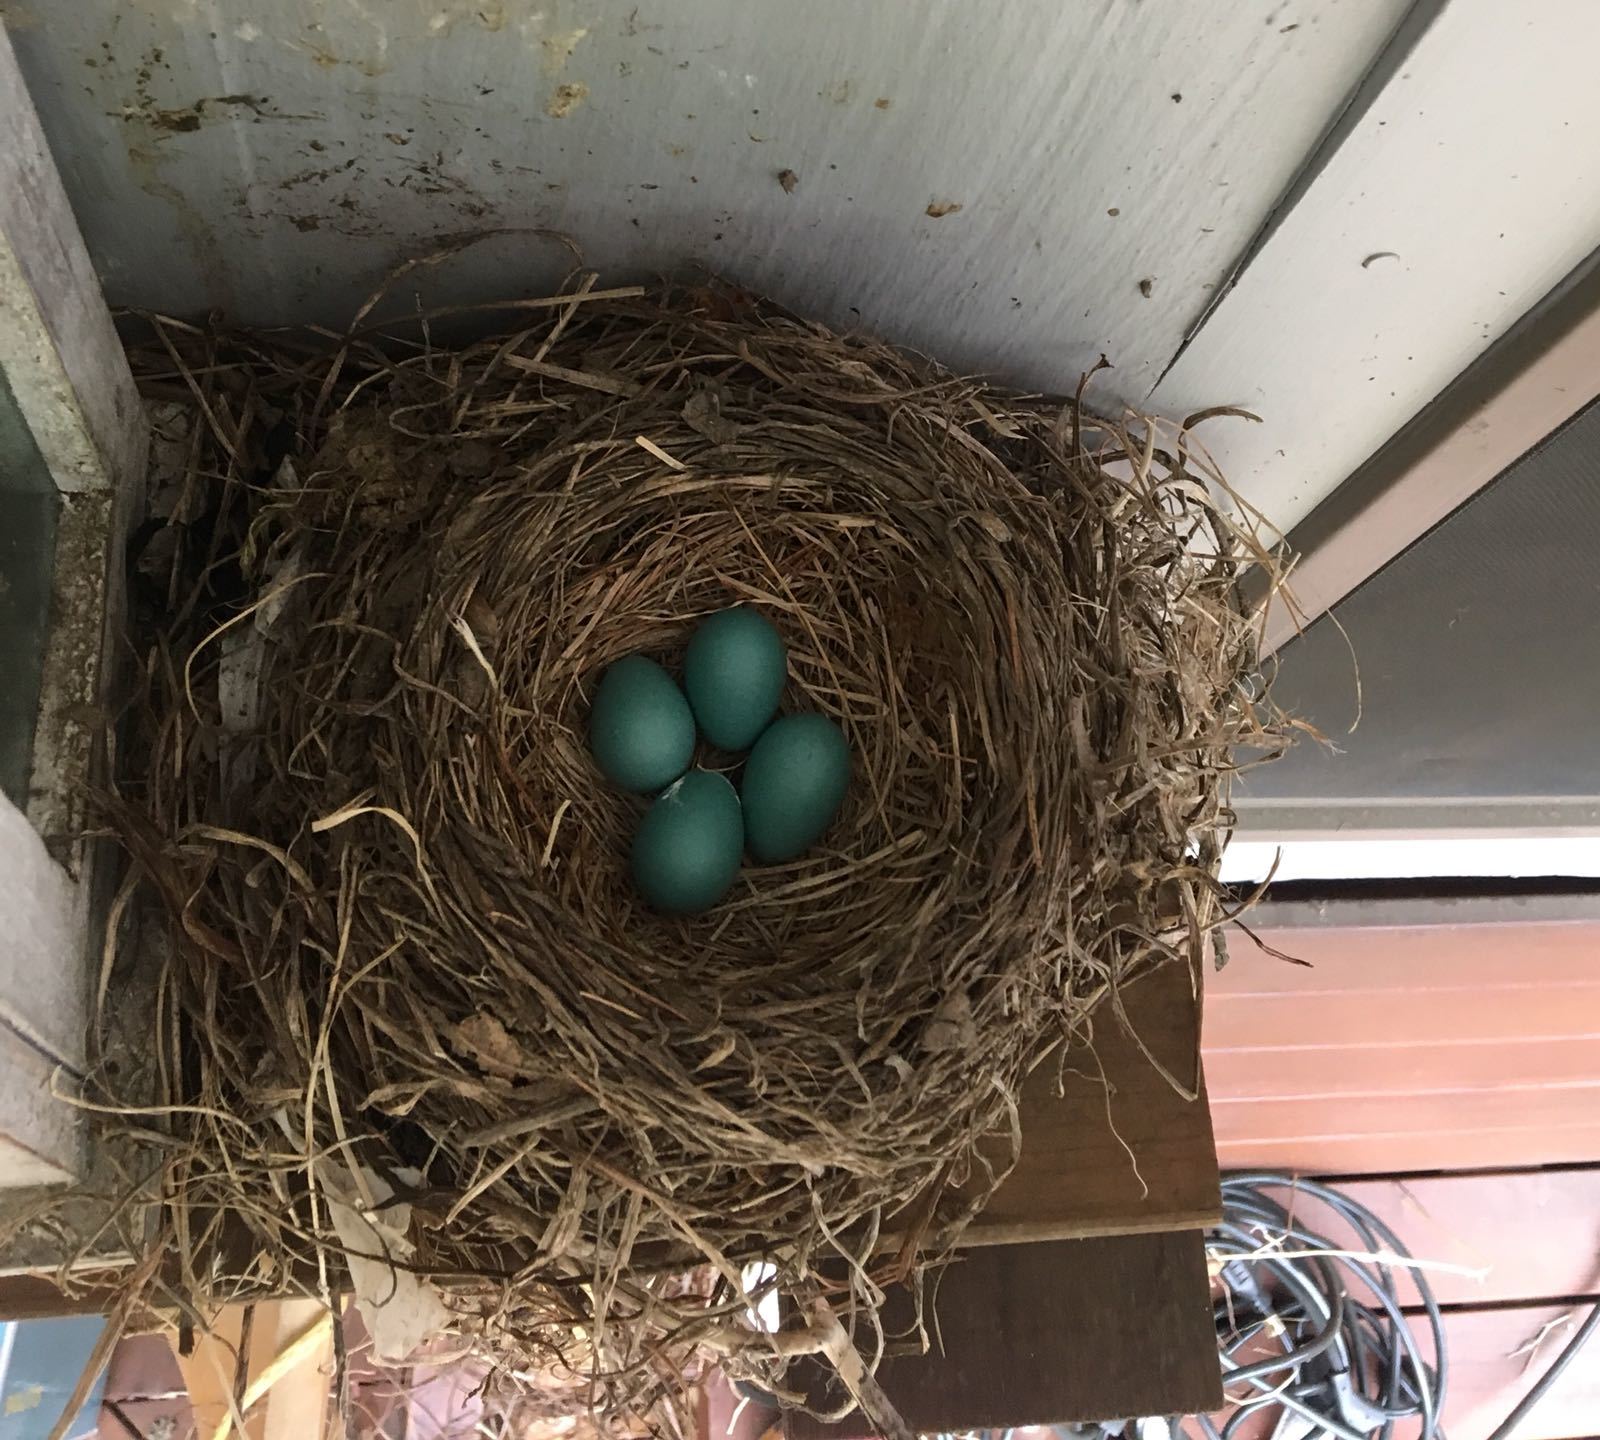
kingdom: Animalia
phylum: Chordata
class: Aves
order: Passeriformes
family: Turdidae
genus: Turdus
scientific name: Turdus migratorius
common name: American robin
